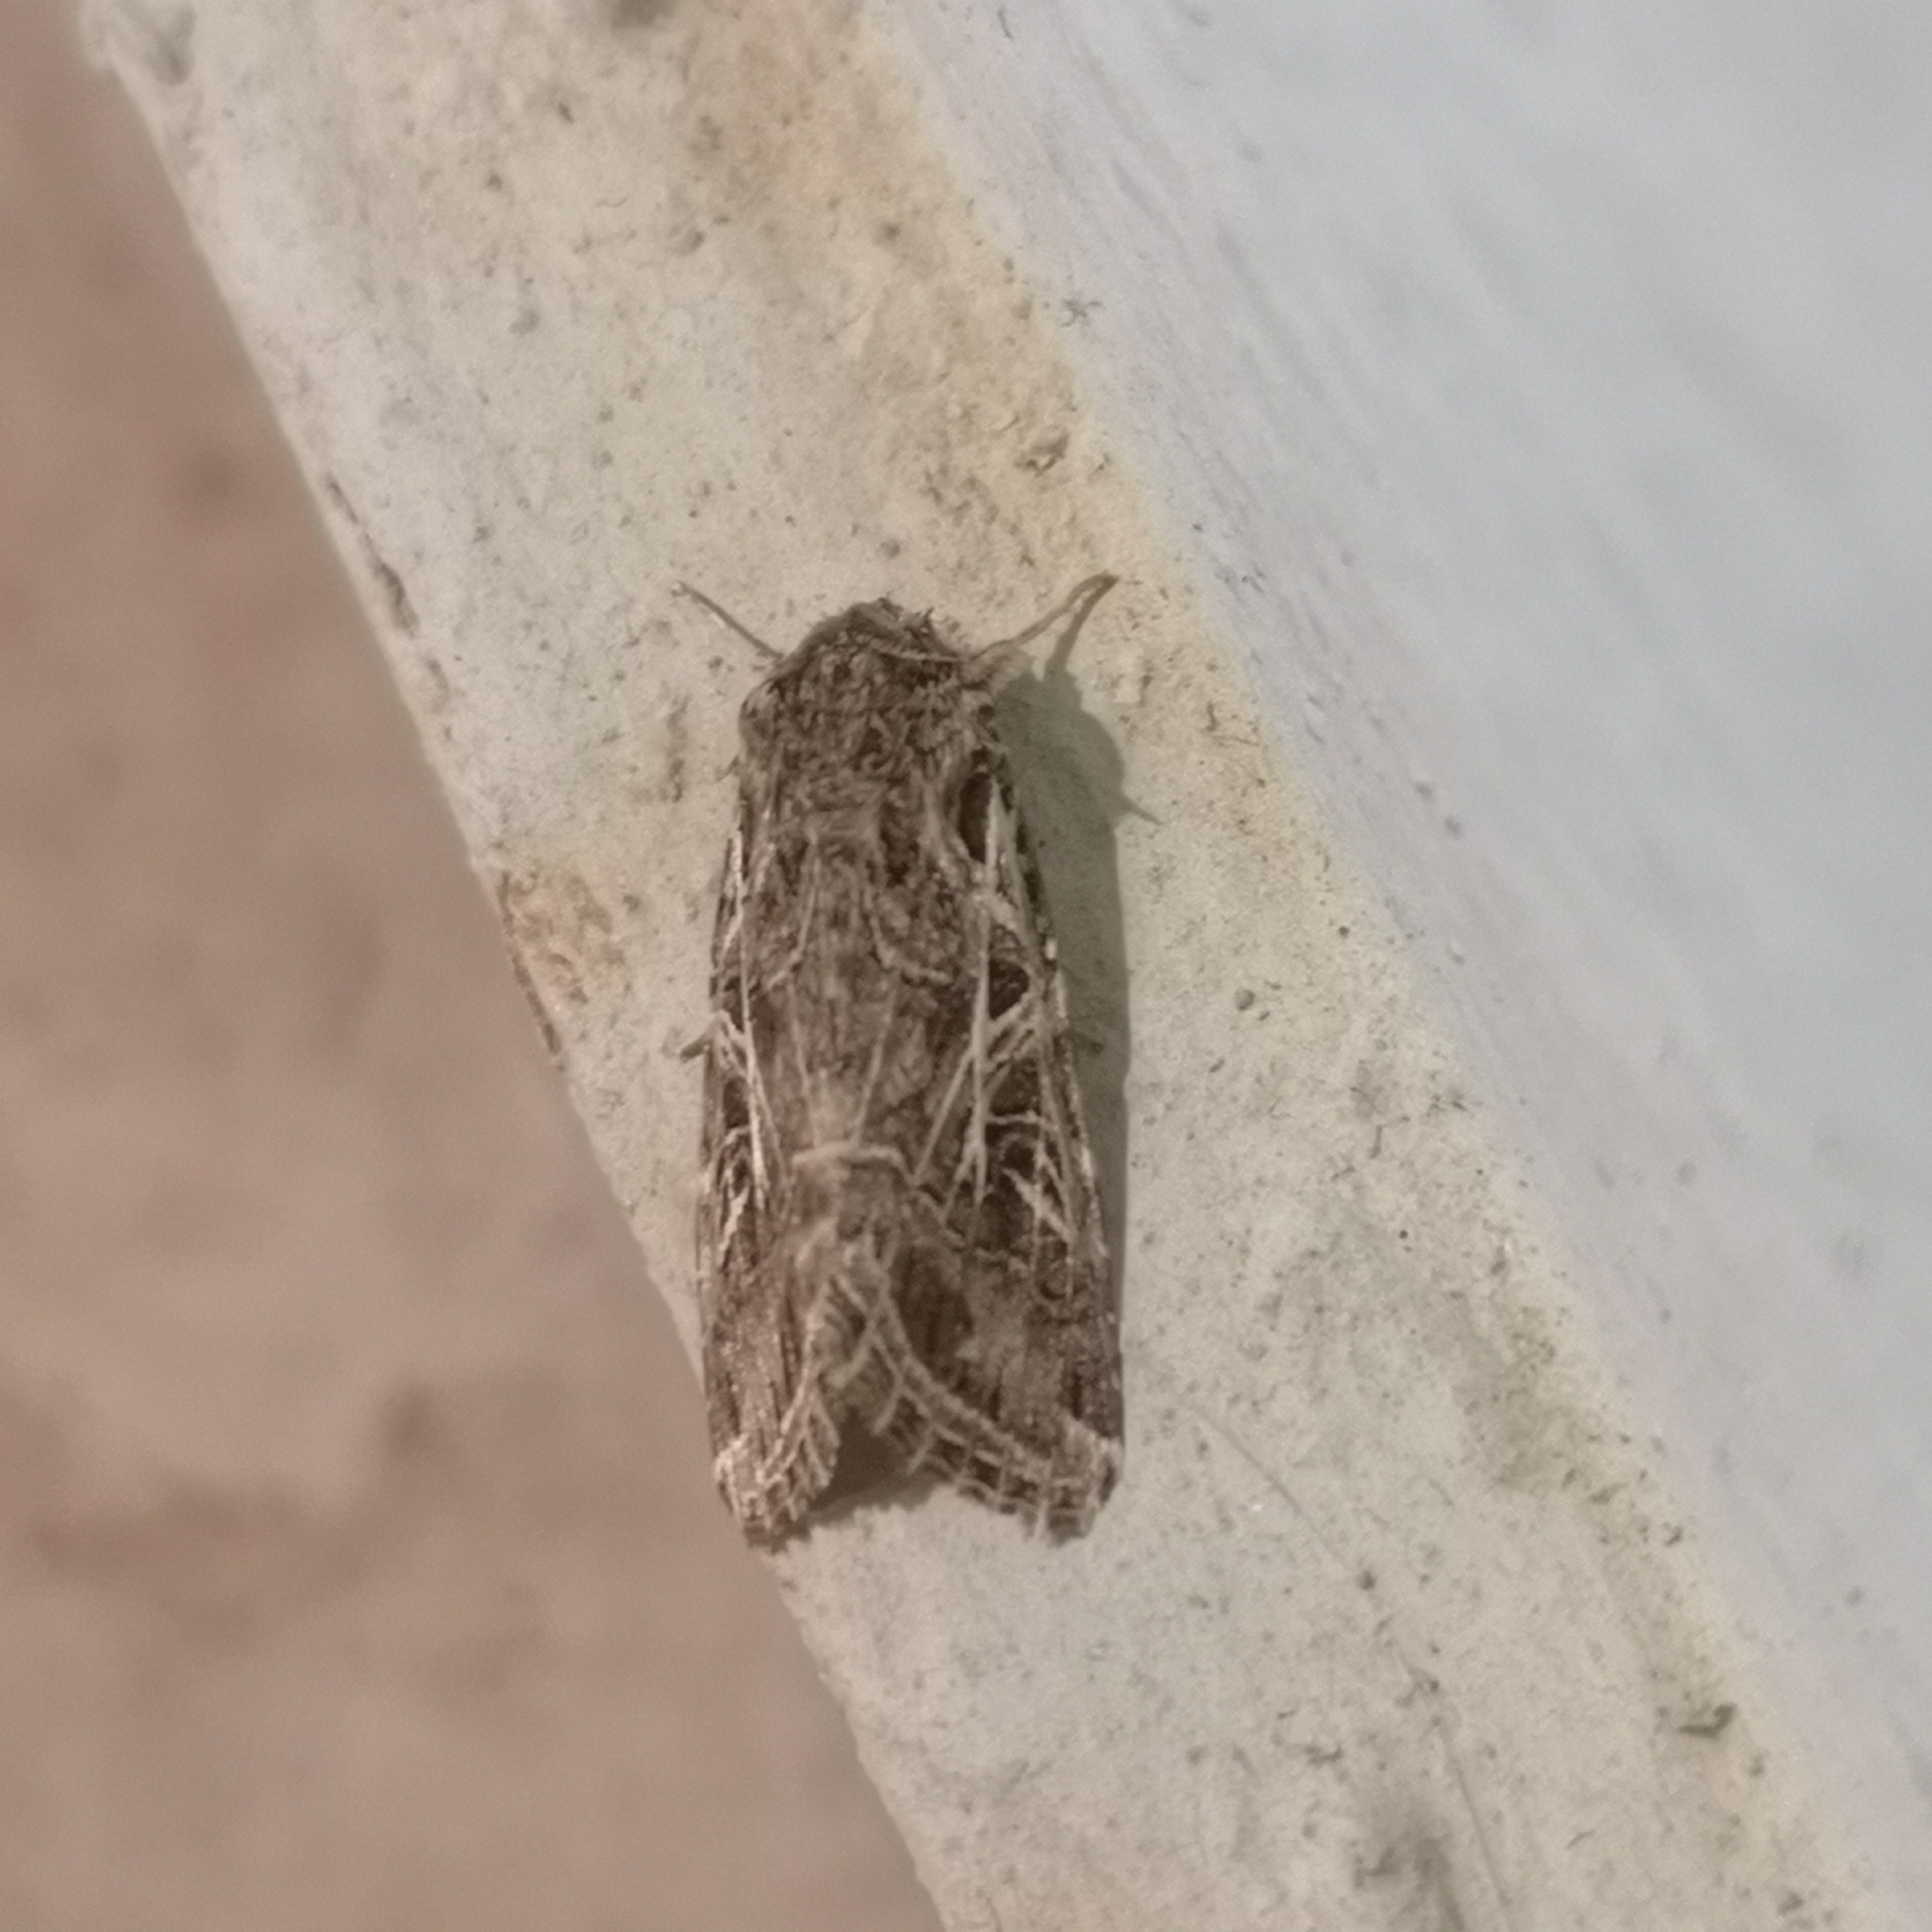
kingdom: Animalia
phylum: Arthropoda
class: Insecta
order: Lepidoptera
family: Noctuidae
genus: Spodoptera
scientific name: Spodoptera littoralis
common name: Egyptian cotton leafworm
